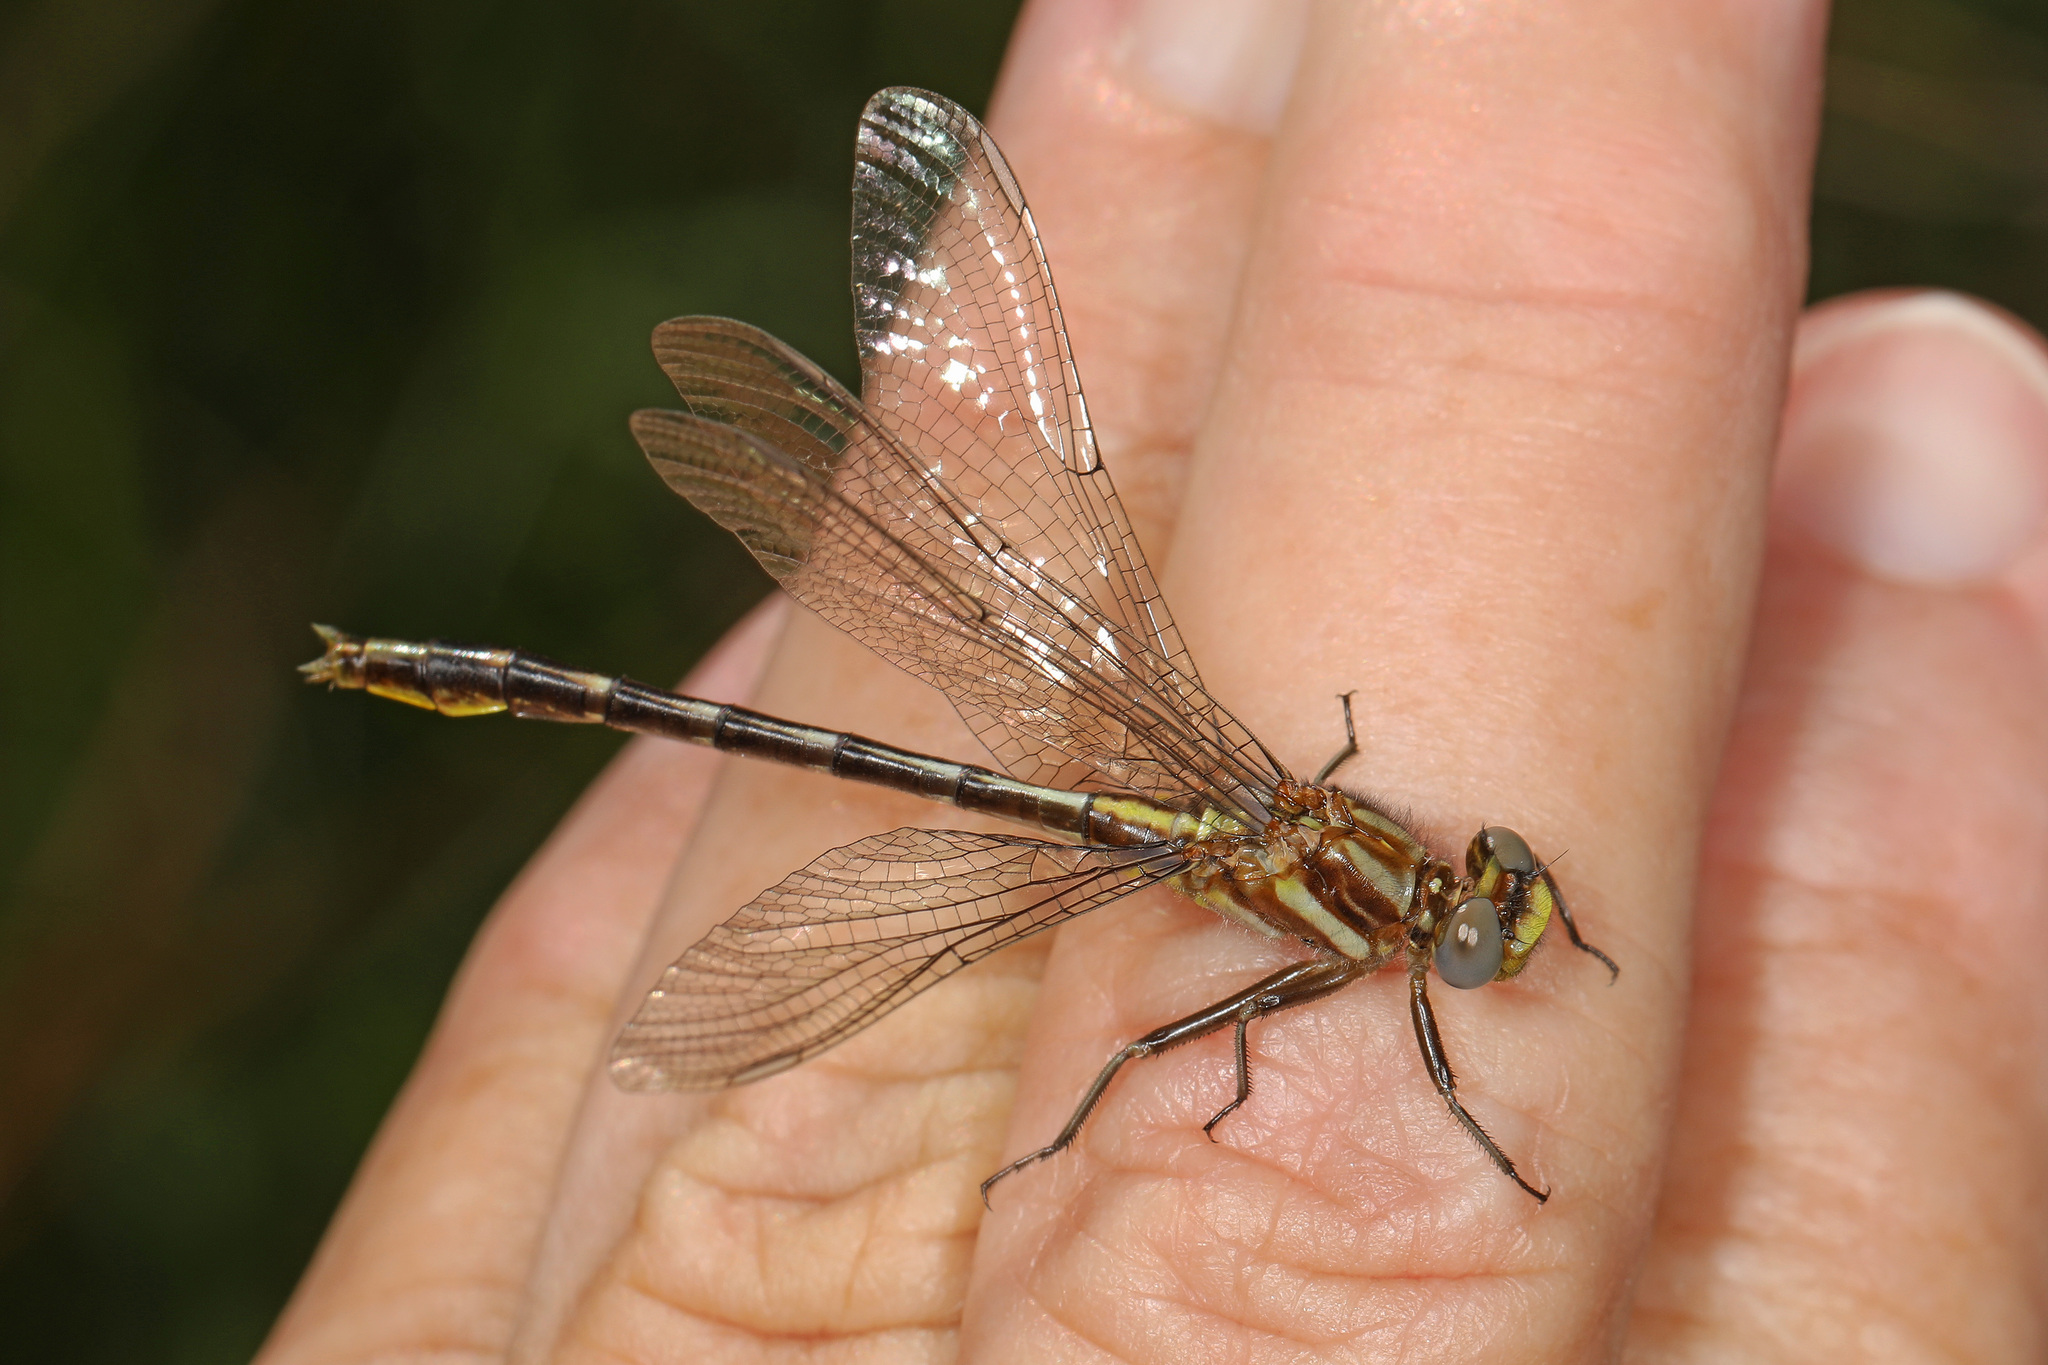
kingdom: Animalia
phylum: Arthropoda
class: Insecta
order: Odonata
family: Gomphidae
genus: Phanogomphus
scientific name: Phanogomphus exilis
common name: Lancet clubtail
